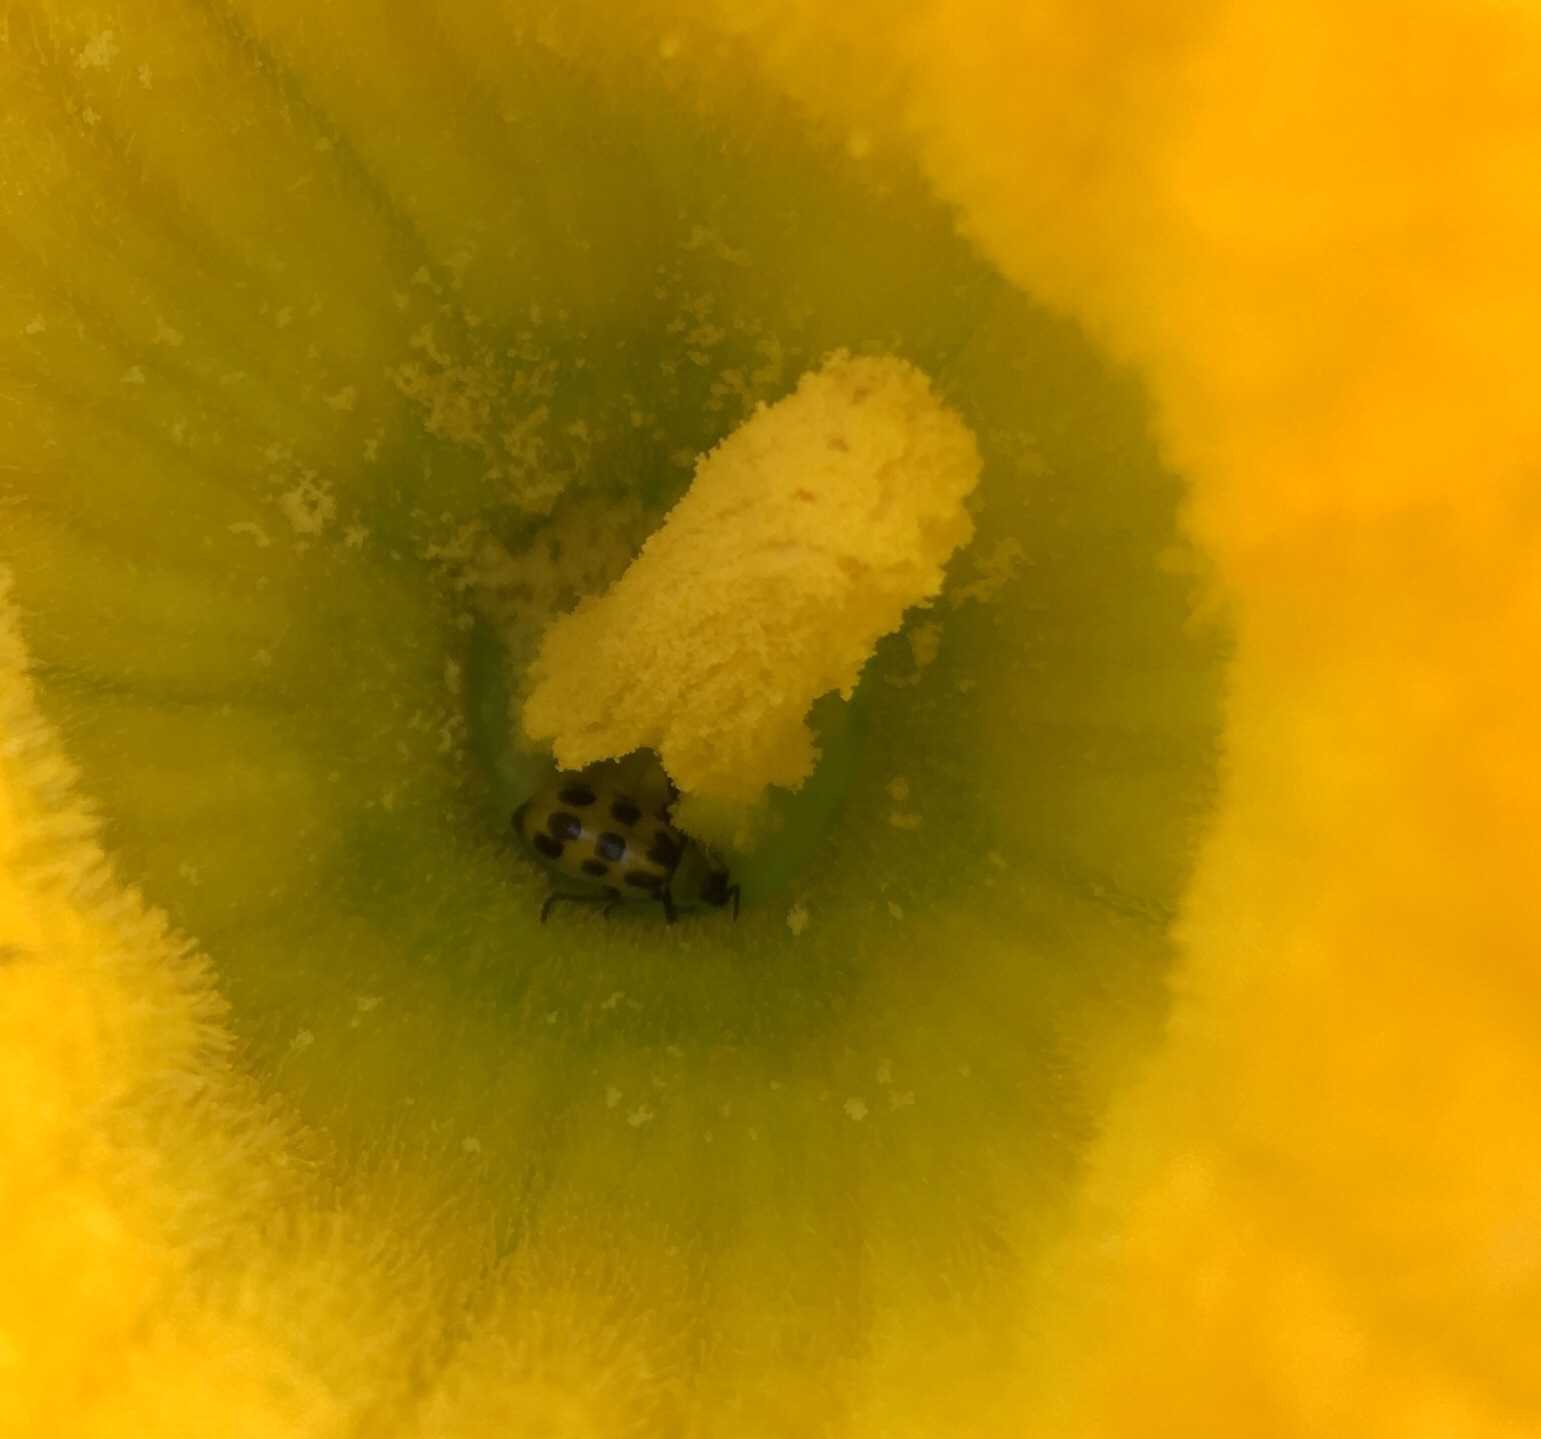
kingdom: Animalia
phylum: Arthropoda
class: Insecta
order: Coleoptera
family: Chrysomelidae
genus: Diabrotica
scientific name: Diabrotica undecimpunctata
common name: Spotted cucumber beetle
